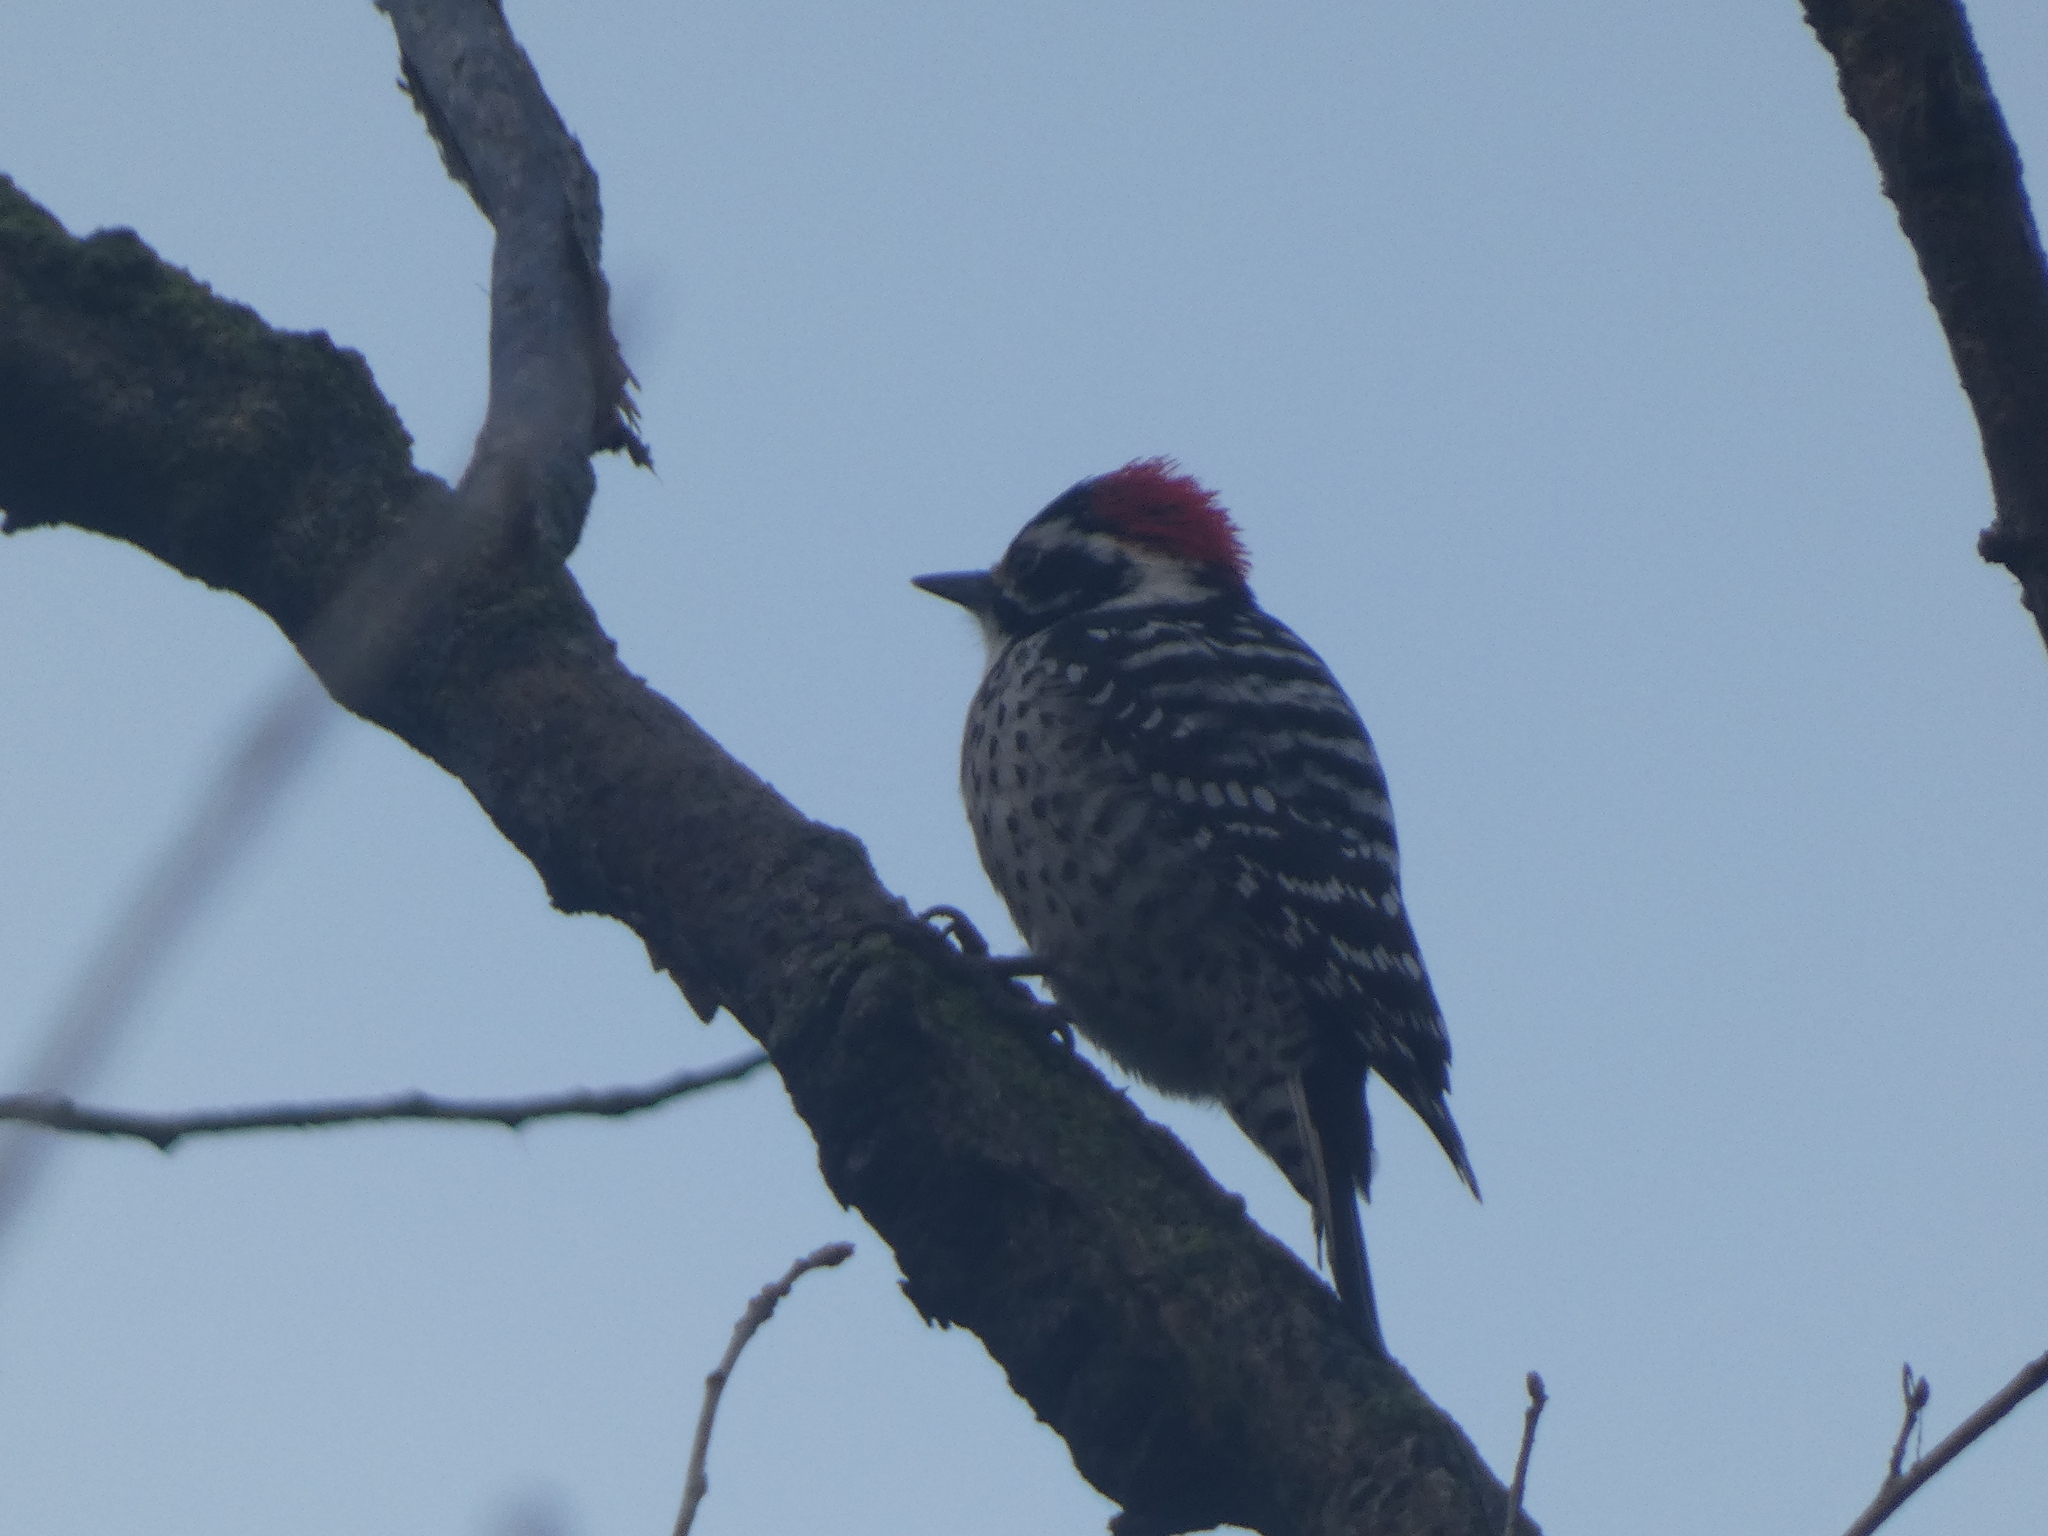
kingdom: Animalia
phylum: Chordata
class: Aves
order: Piciformes
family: Picidae
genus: Dryobates
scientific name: Dryobates nuttallii
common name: Nuttall's woodpecker
